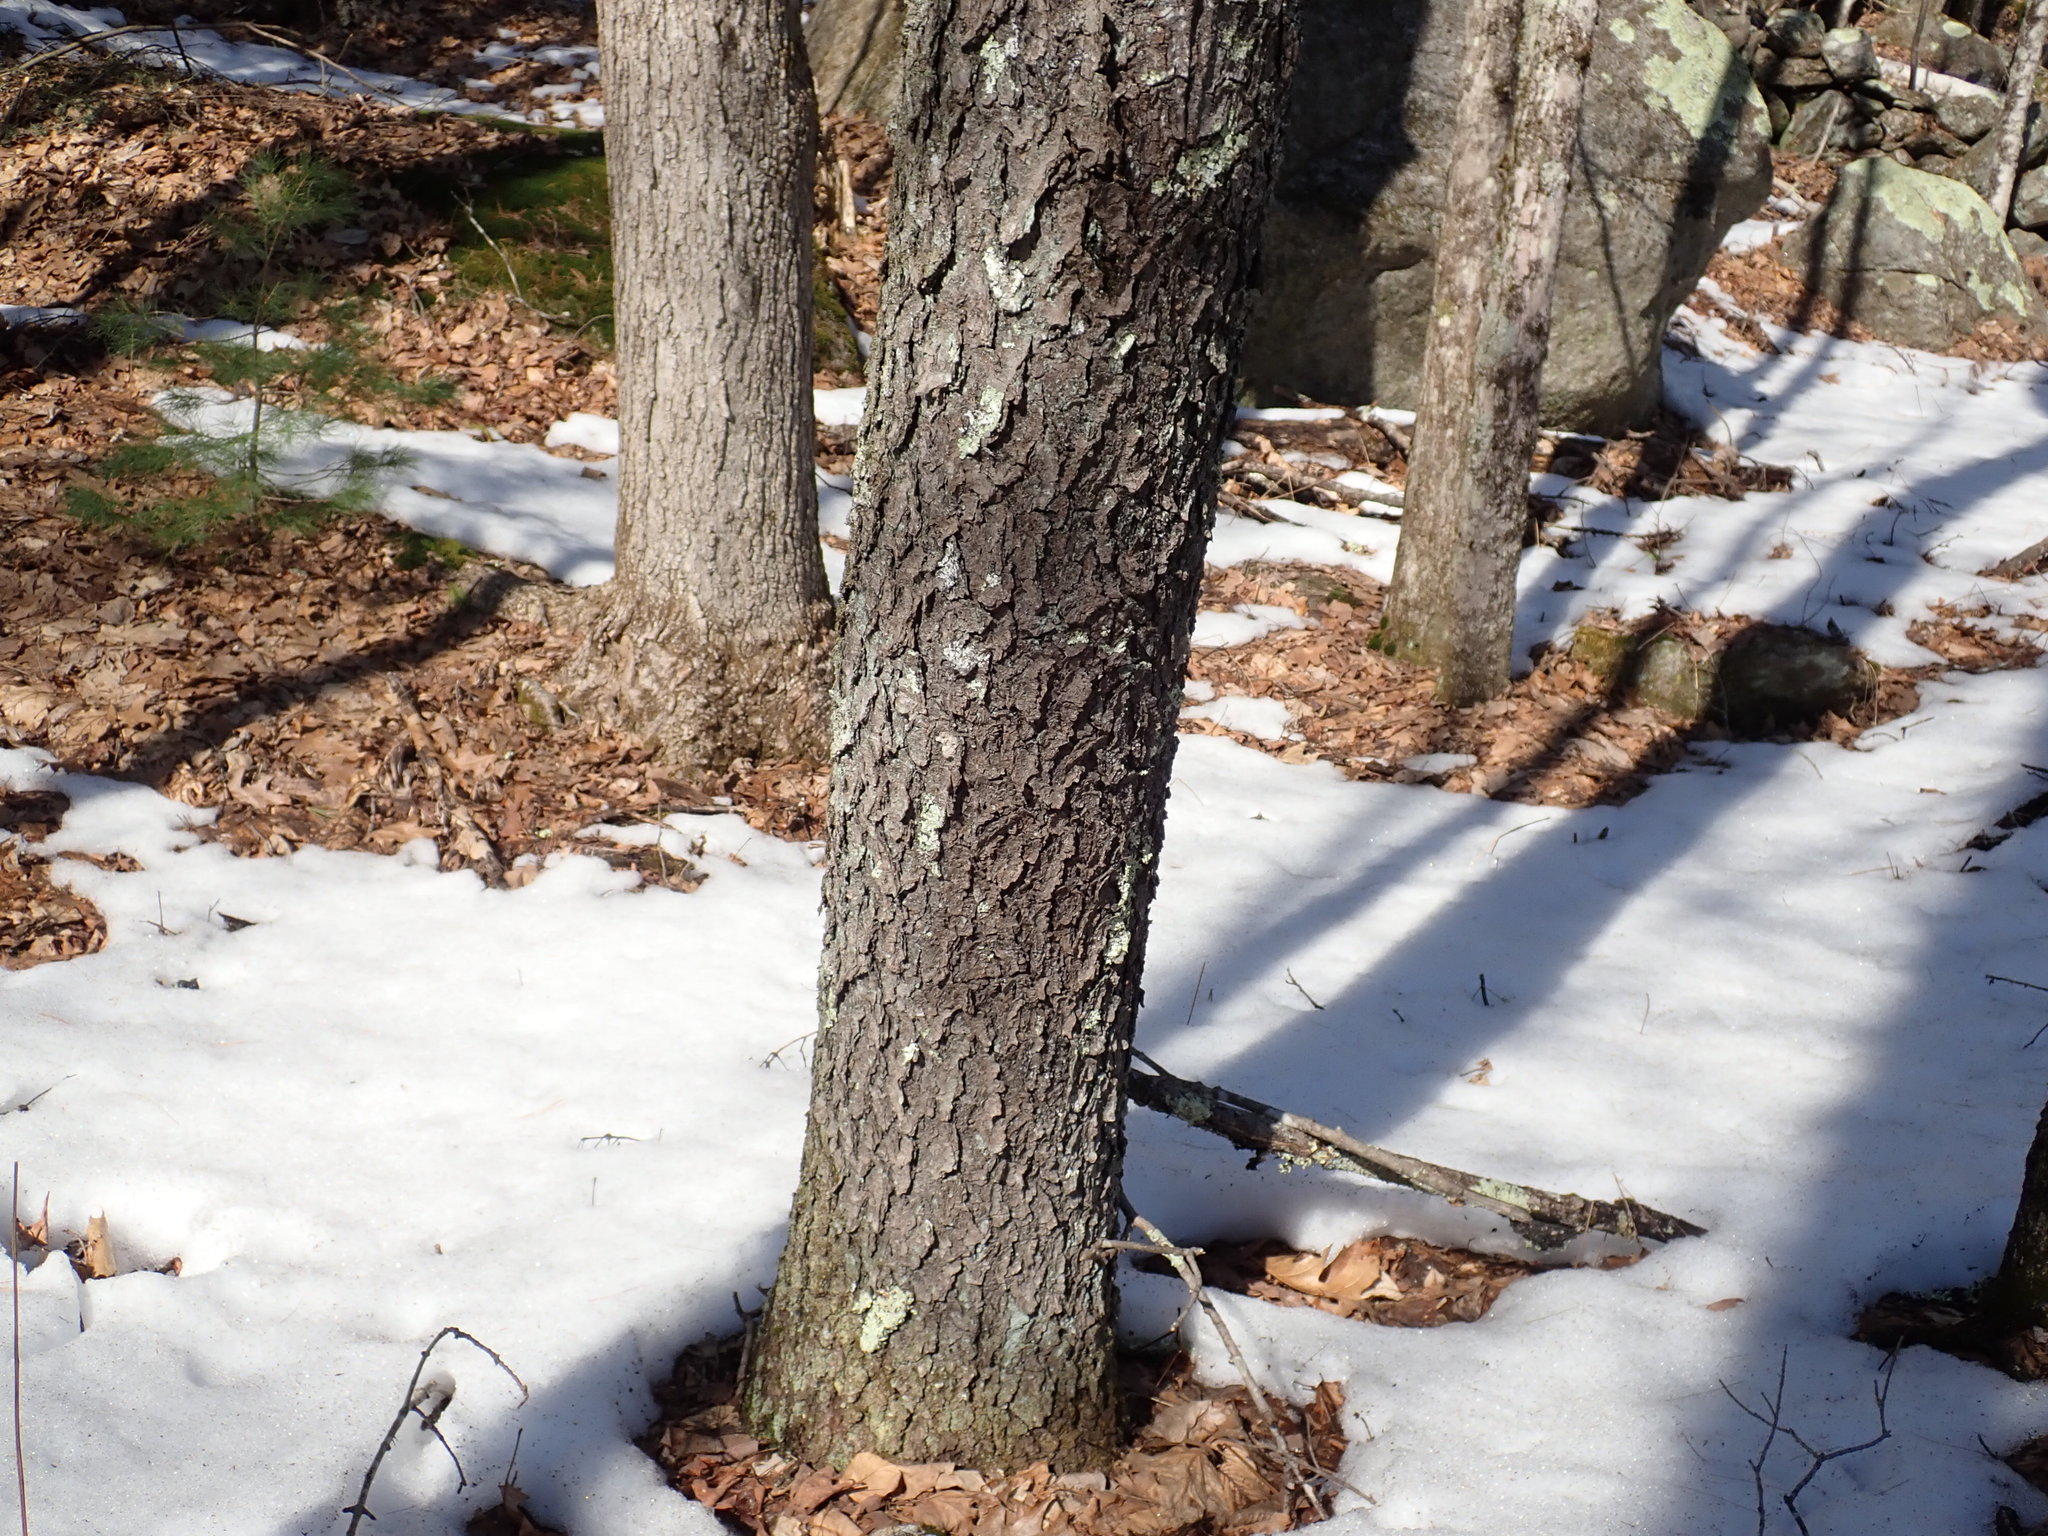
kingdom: Plantae
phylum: Tracheophyta
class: Magnoliopsida
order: Rosales
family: Rosaceae
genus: Prunus
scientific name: Prunus serotina
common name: Black cherry
